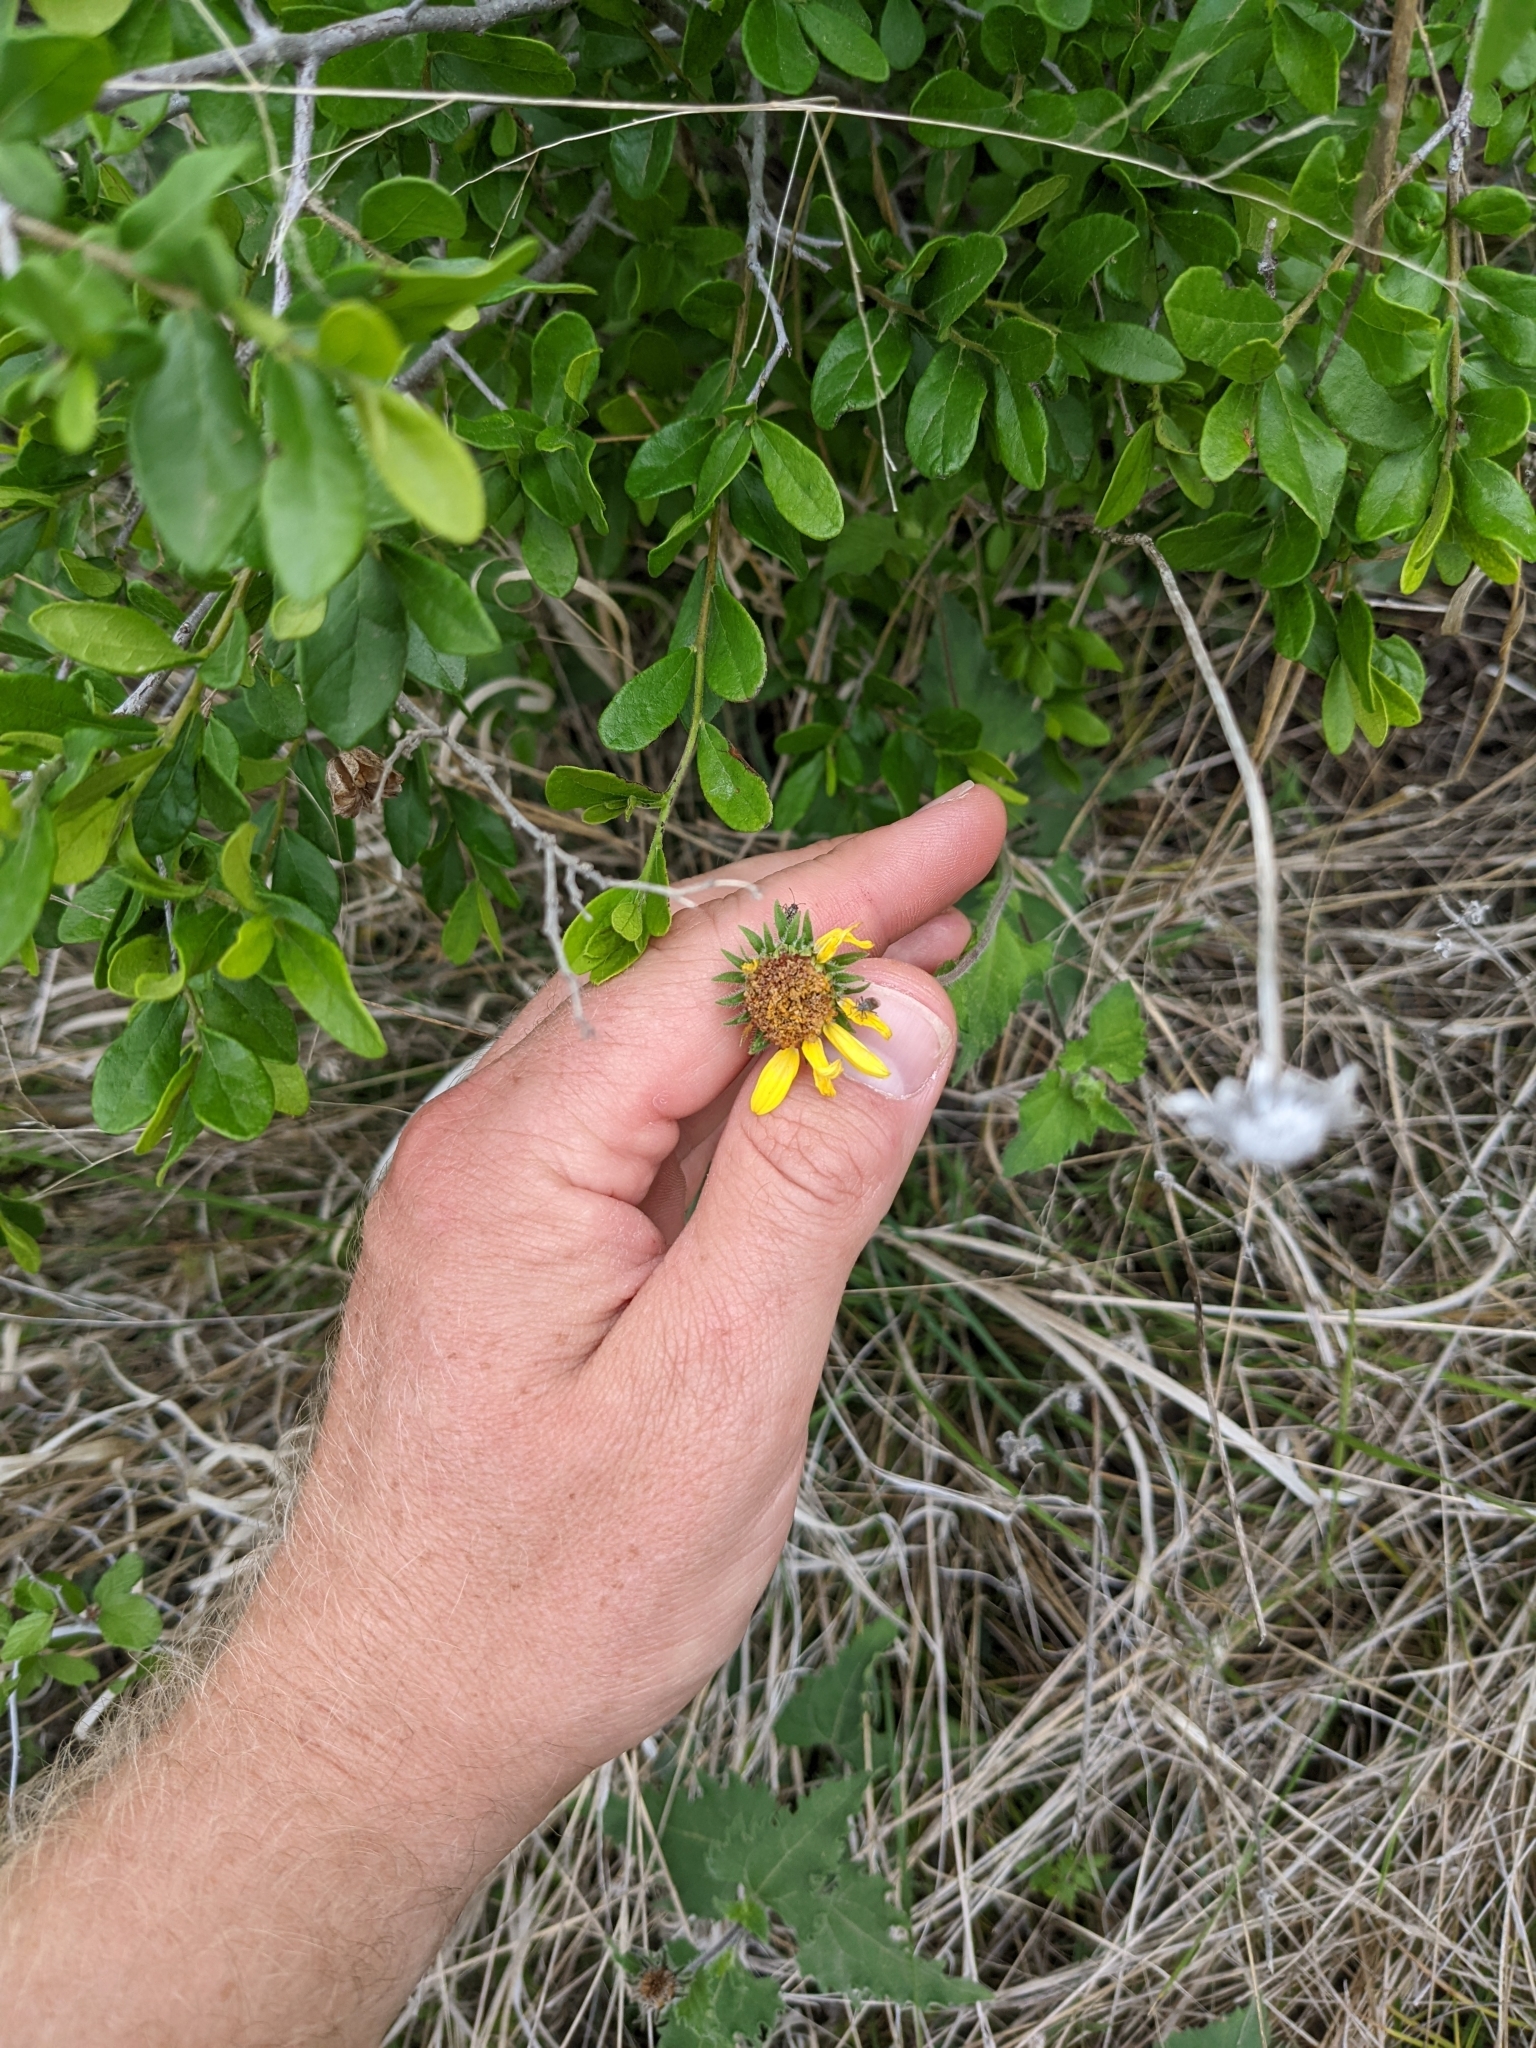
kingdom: Plantae
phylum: Tracheophyta
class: Magnoliopsida
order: Asterales
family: Asteraceae
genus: Simsia
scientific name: Simsia calva
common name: Awnless bush-sunflower
